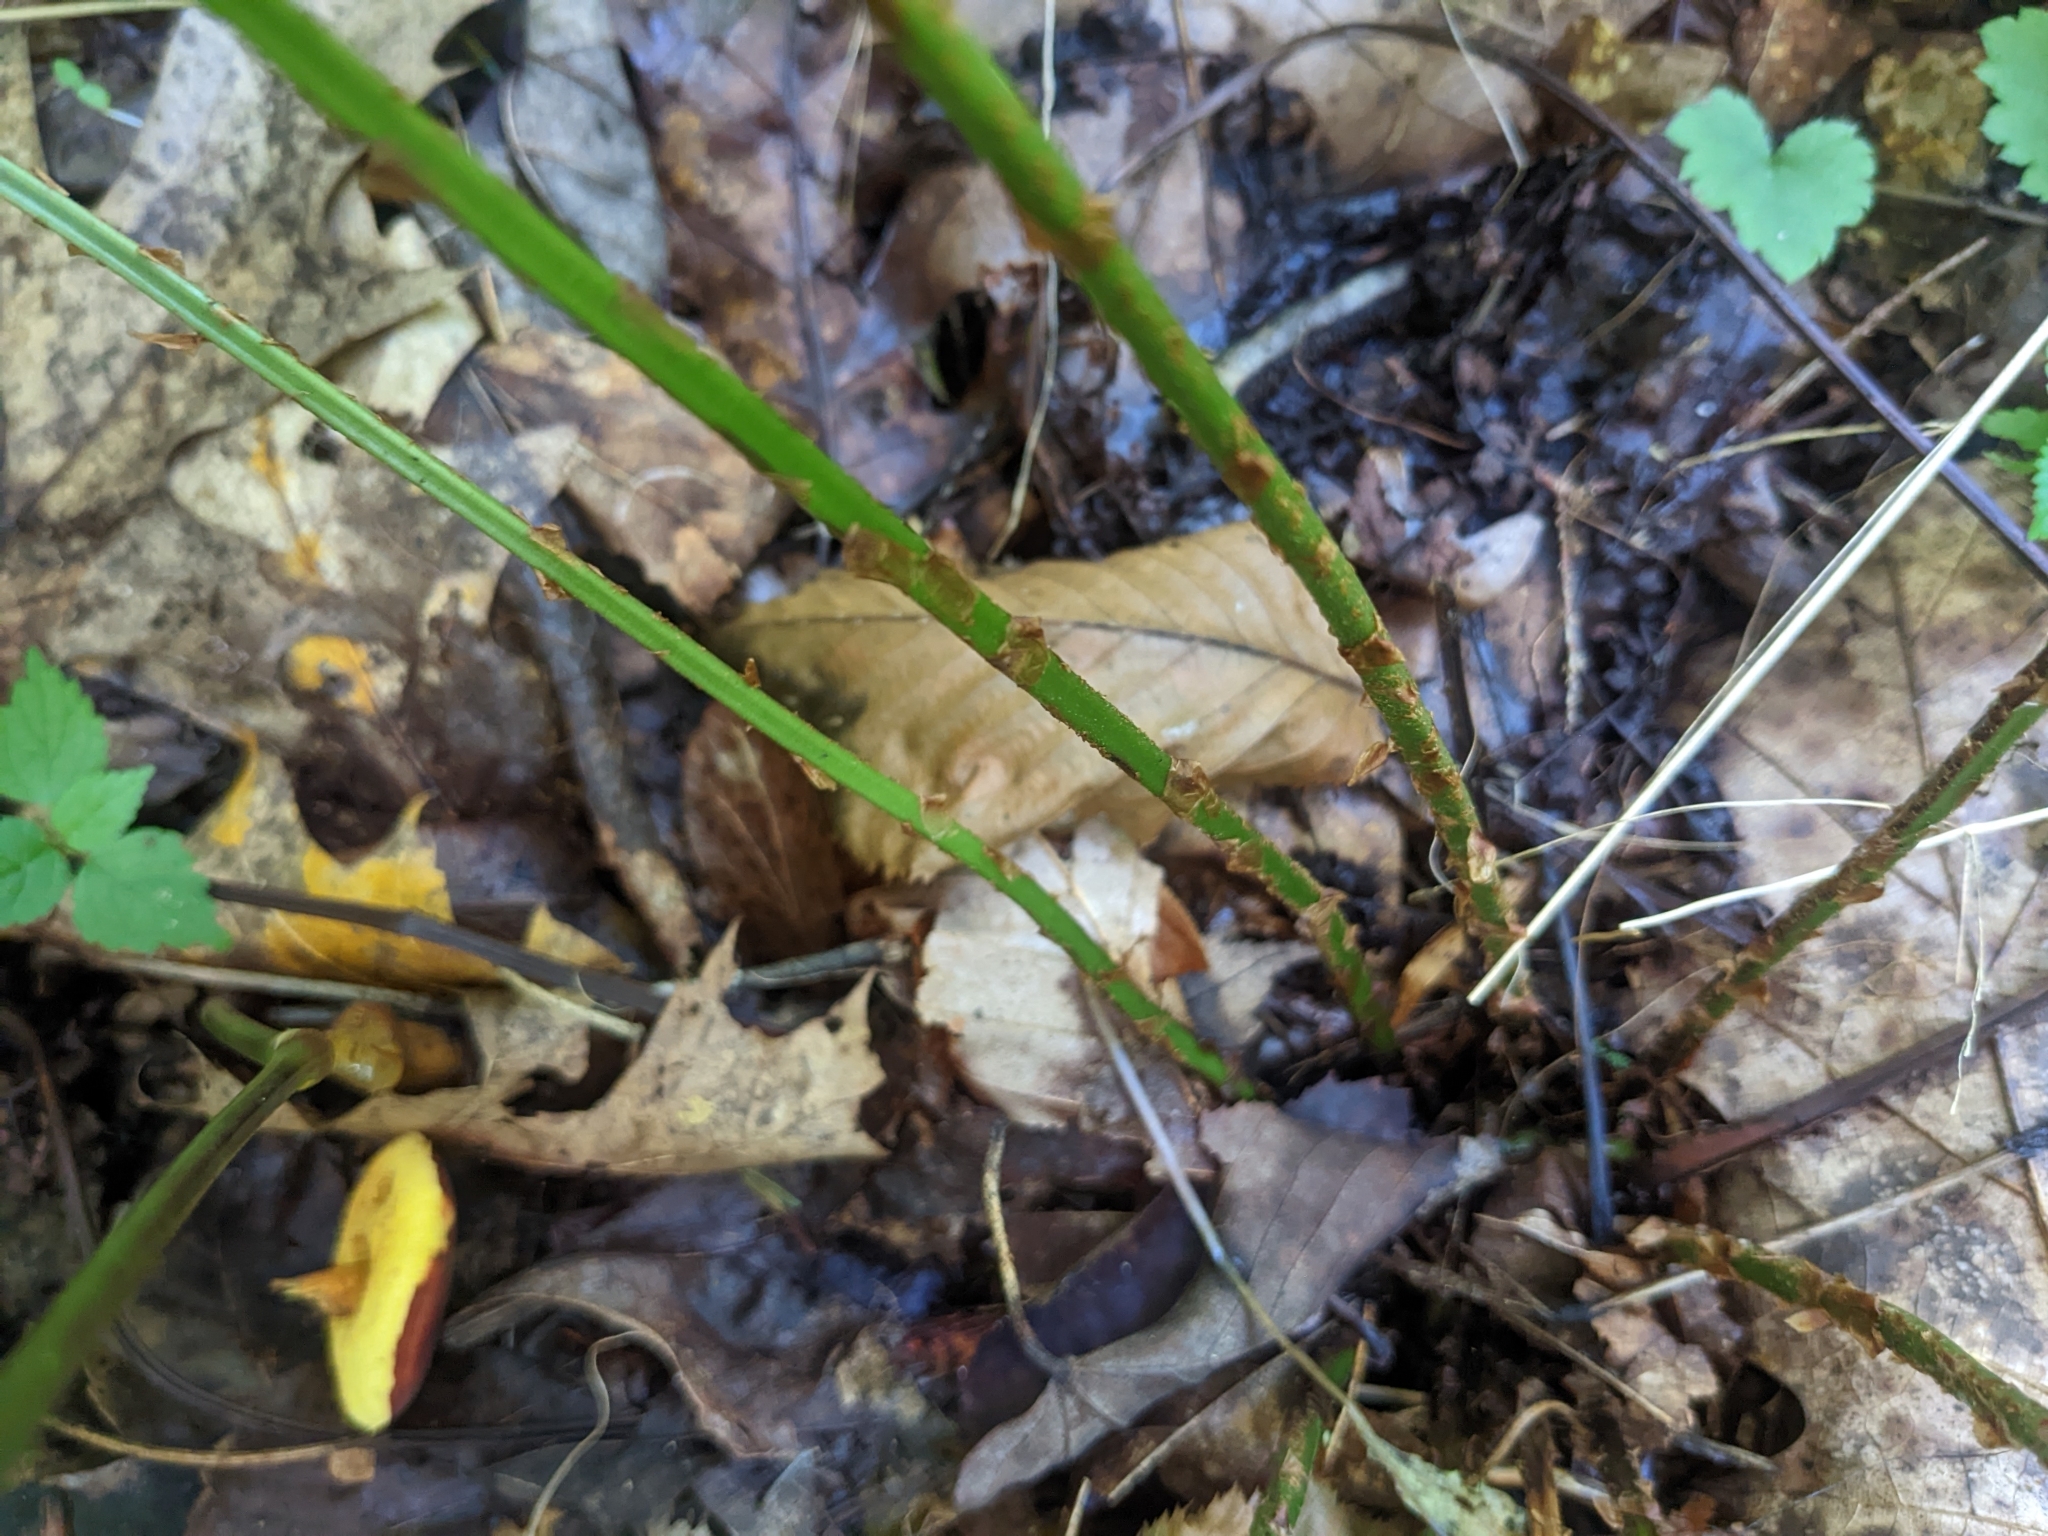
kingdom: Plantae
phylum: Tracheophyta
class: Polypodiopsida
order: Polypodiales
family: Dryopteridaceae
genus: Dryopteris
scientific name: Dryopteris intermedia
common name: Evergreen wood fern
